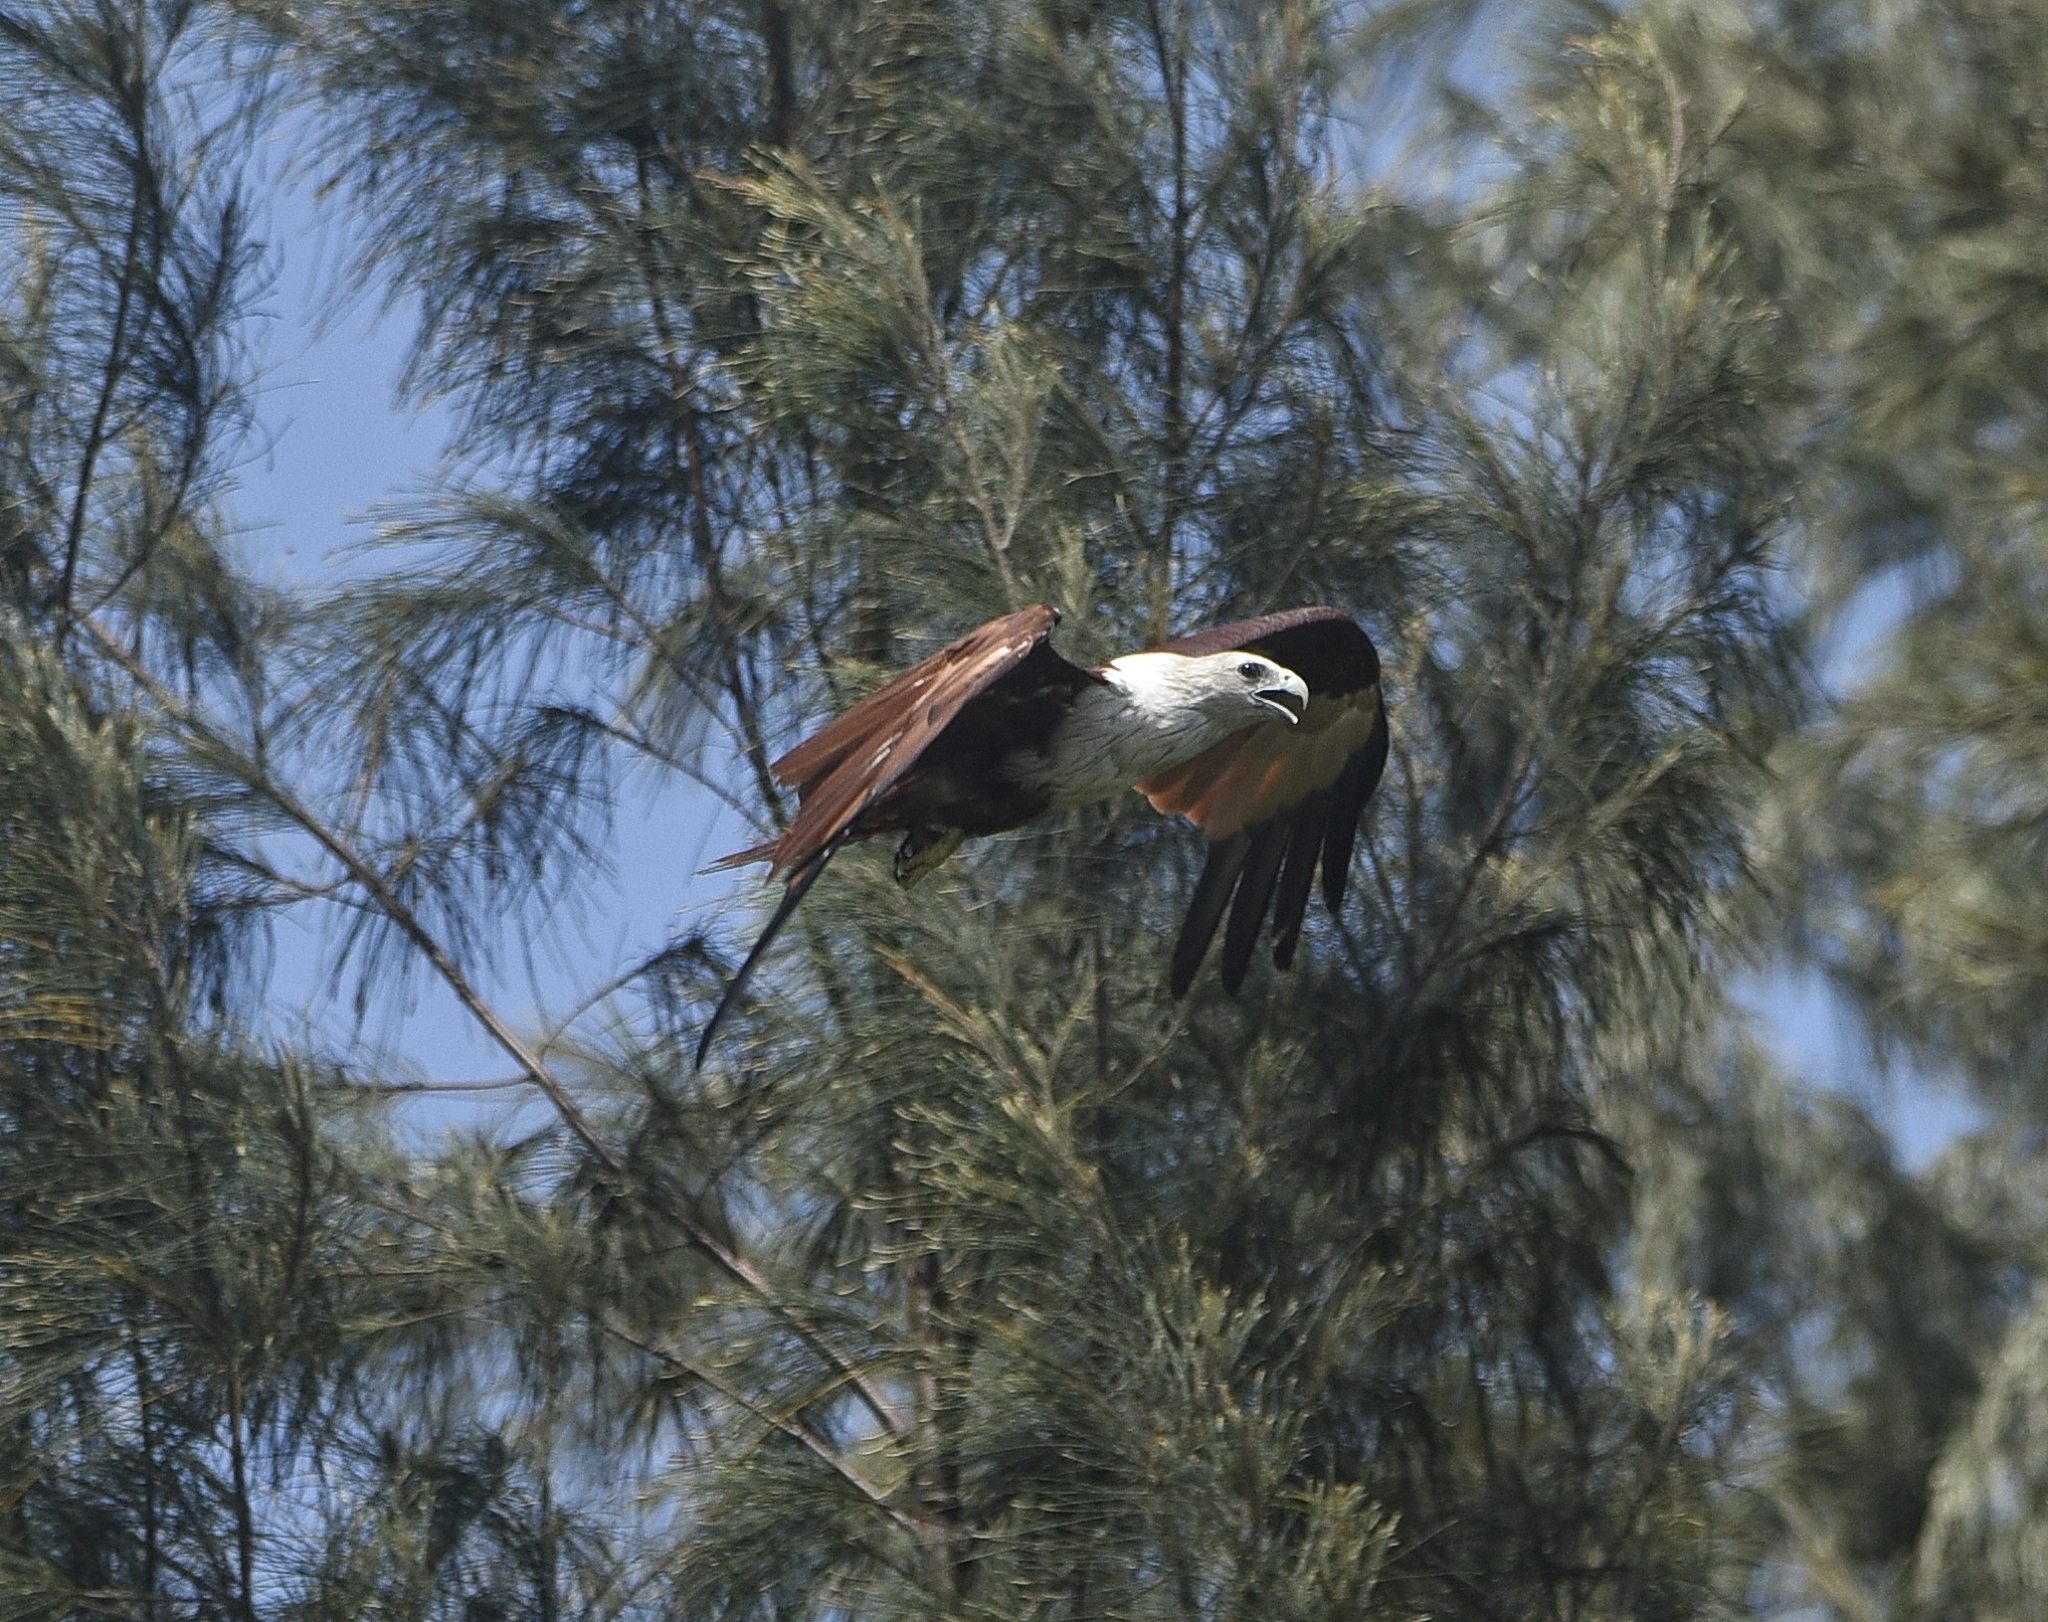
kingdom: Animalia
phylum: Chordata
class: Aves
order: Accipitriformes
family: Accipitridae
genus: Haliastur
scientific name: Haliastur indus
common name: Brahminy kite
